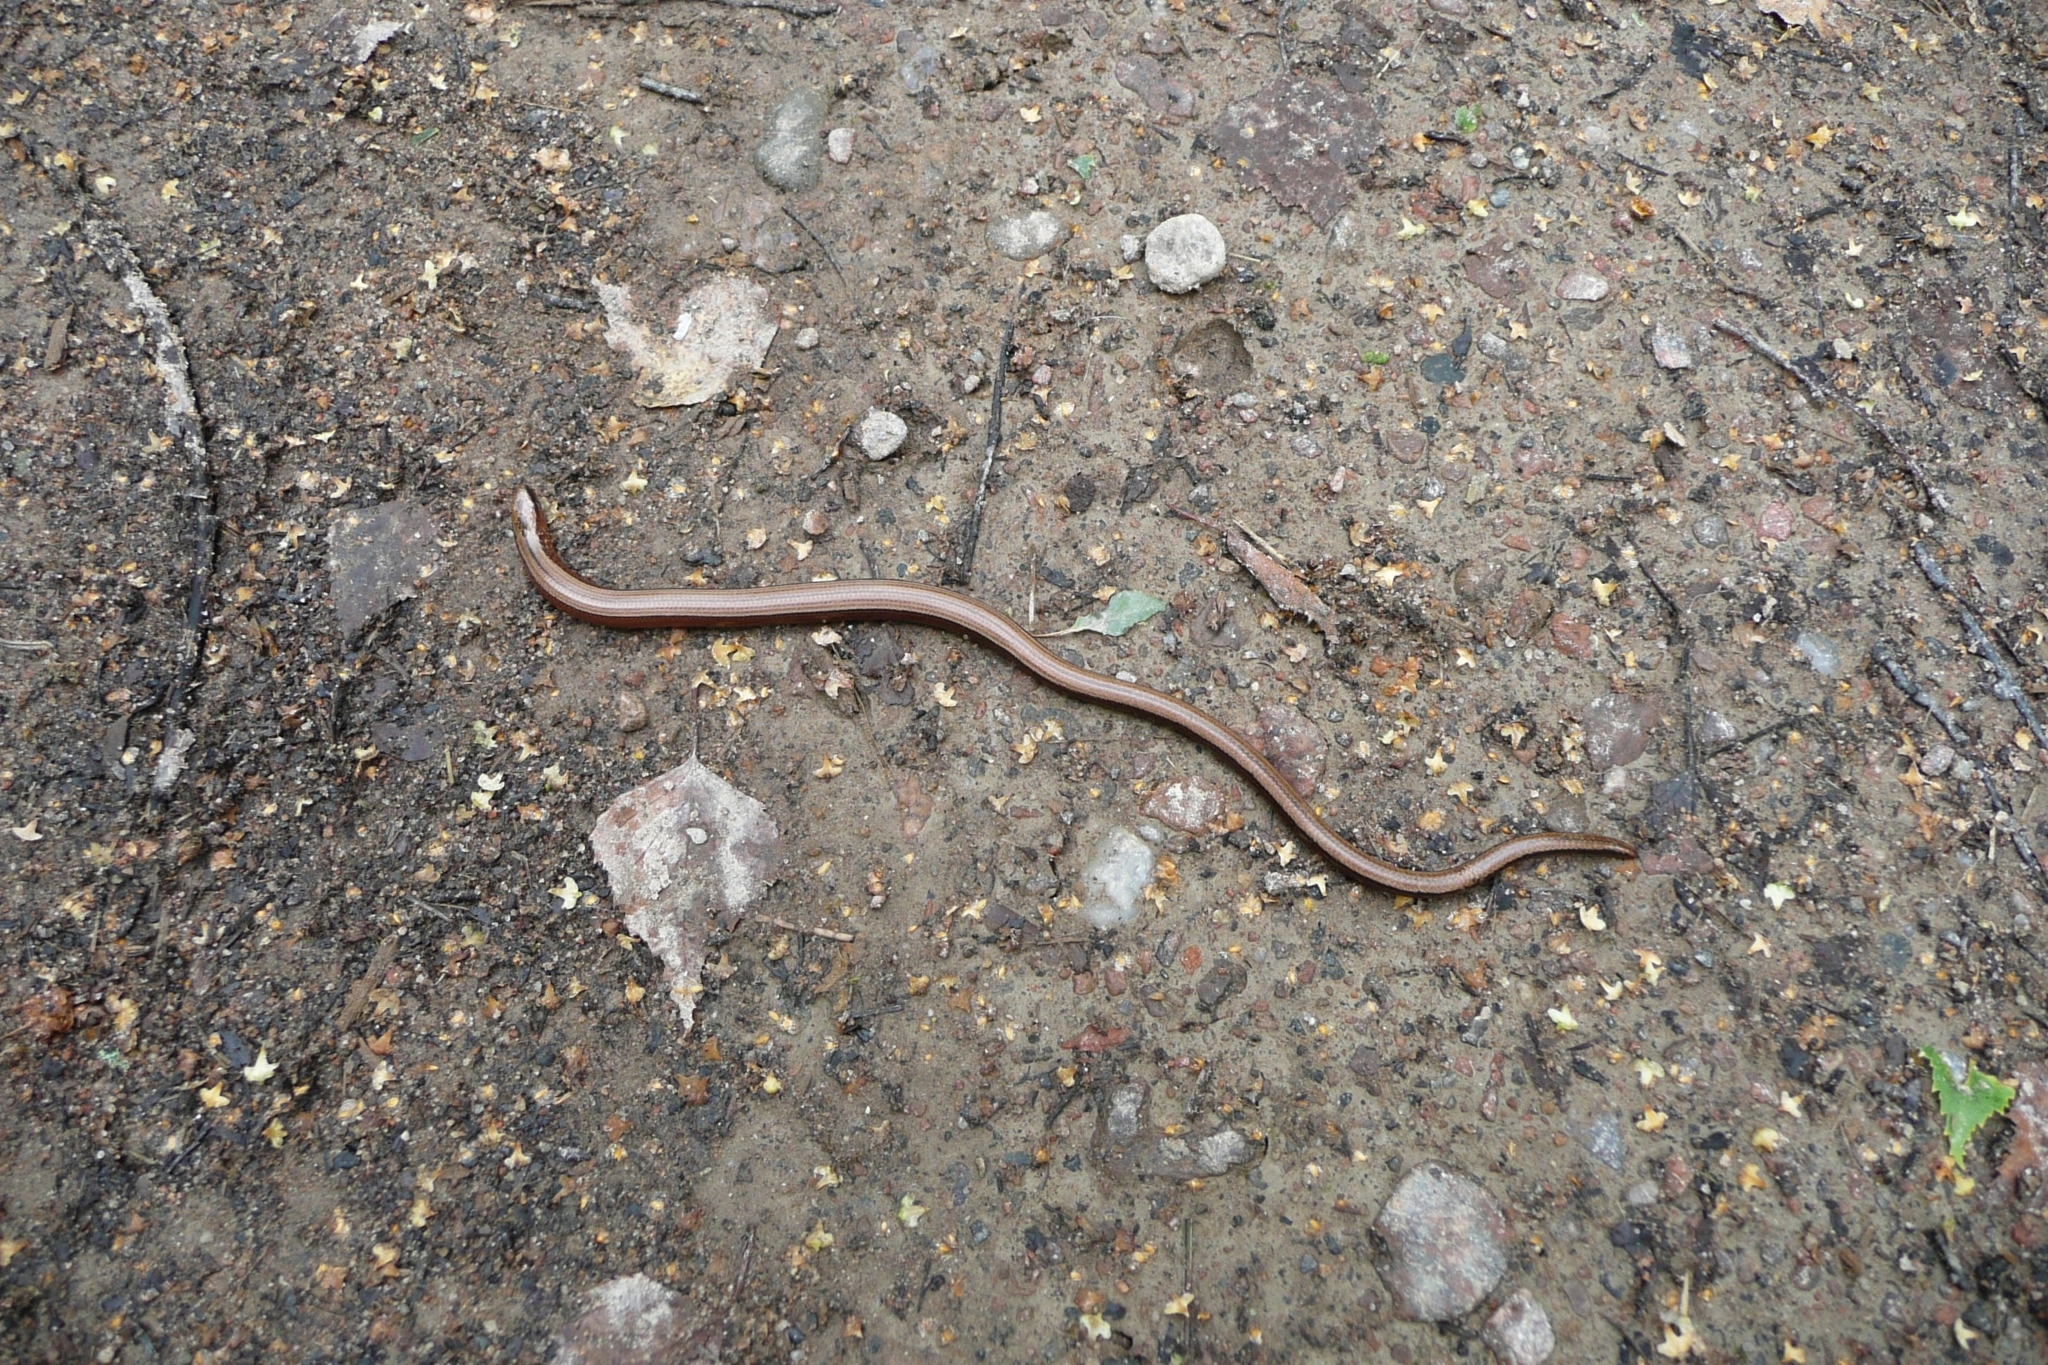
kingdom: Animalia
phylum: Chordata
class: Squamata
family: Anguidae
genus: Anguis
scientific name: Anguis fragilis
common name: Slow worm
